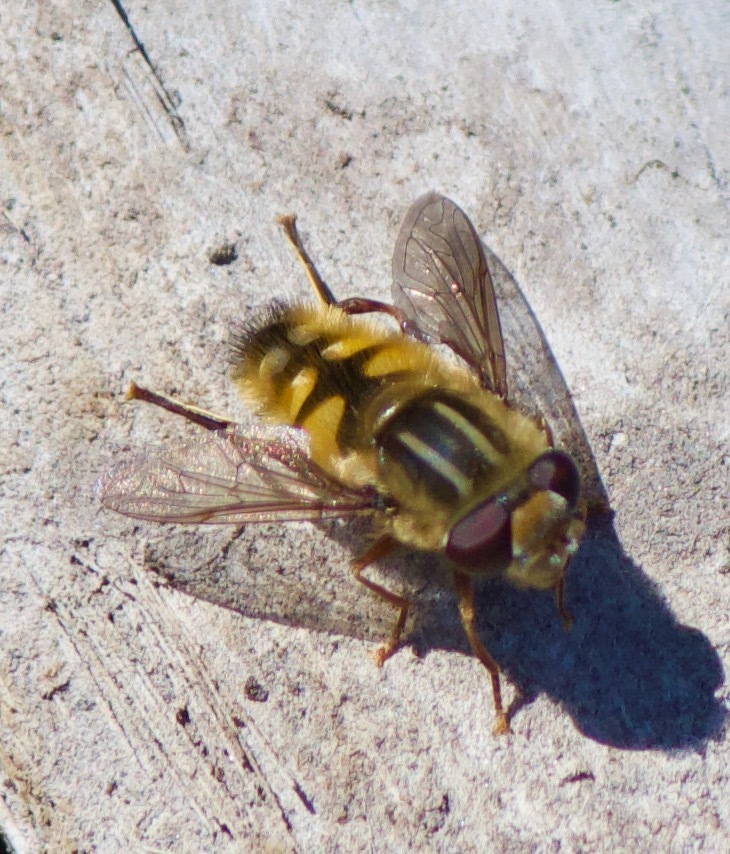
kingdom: Animalia
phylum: Arthropoda
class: Insecta
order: Diptera
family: Syrphidae
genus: Helophilus
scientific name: Helophilus chilensis
